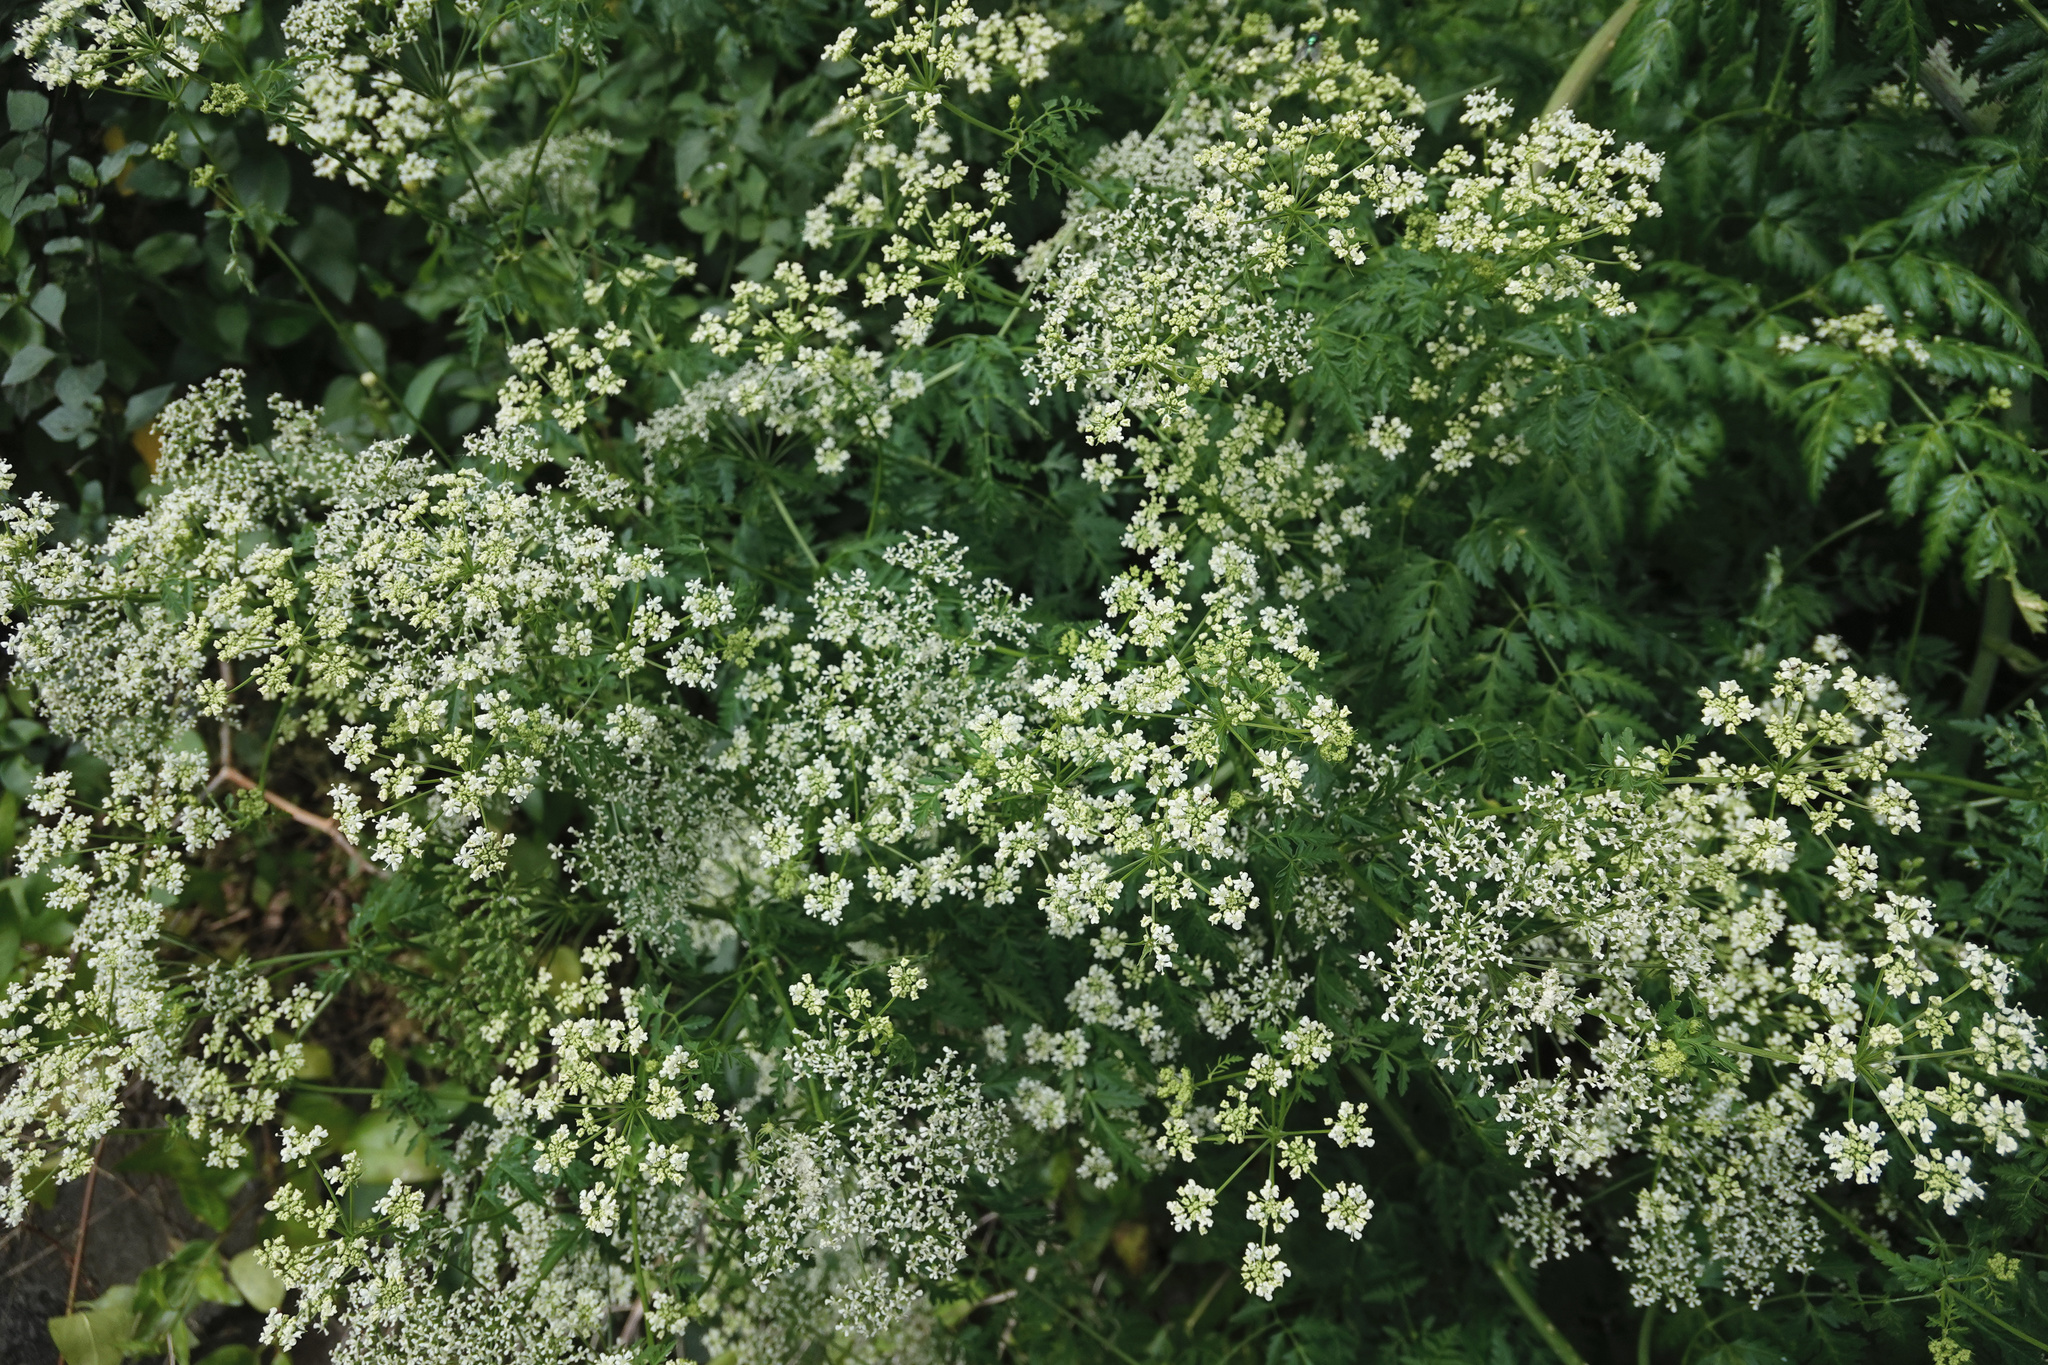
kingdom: Plantae
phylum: Tracheophyta
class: Magnoliopsida
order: Apiales
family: Apiaceae
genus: Conium
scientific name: Conium maculatum
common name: Hemlock
